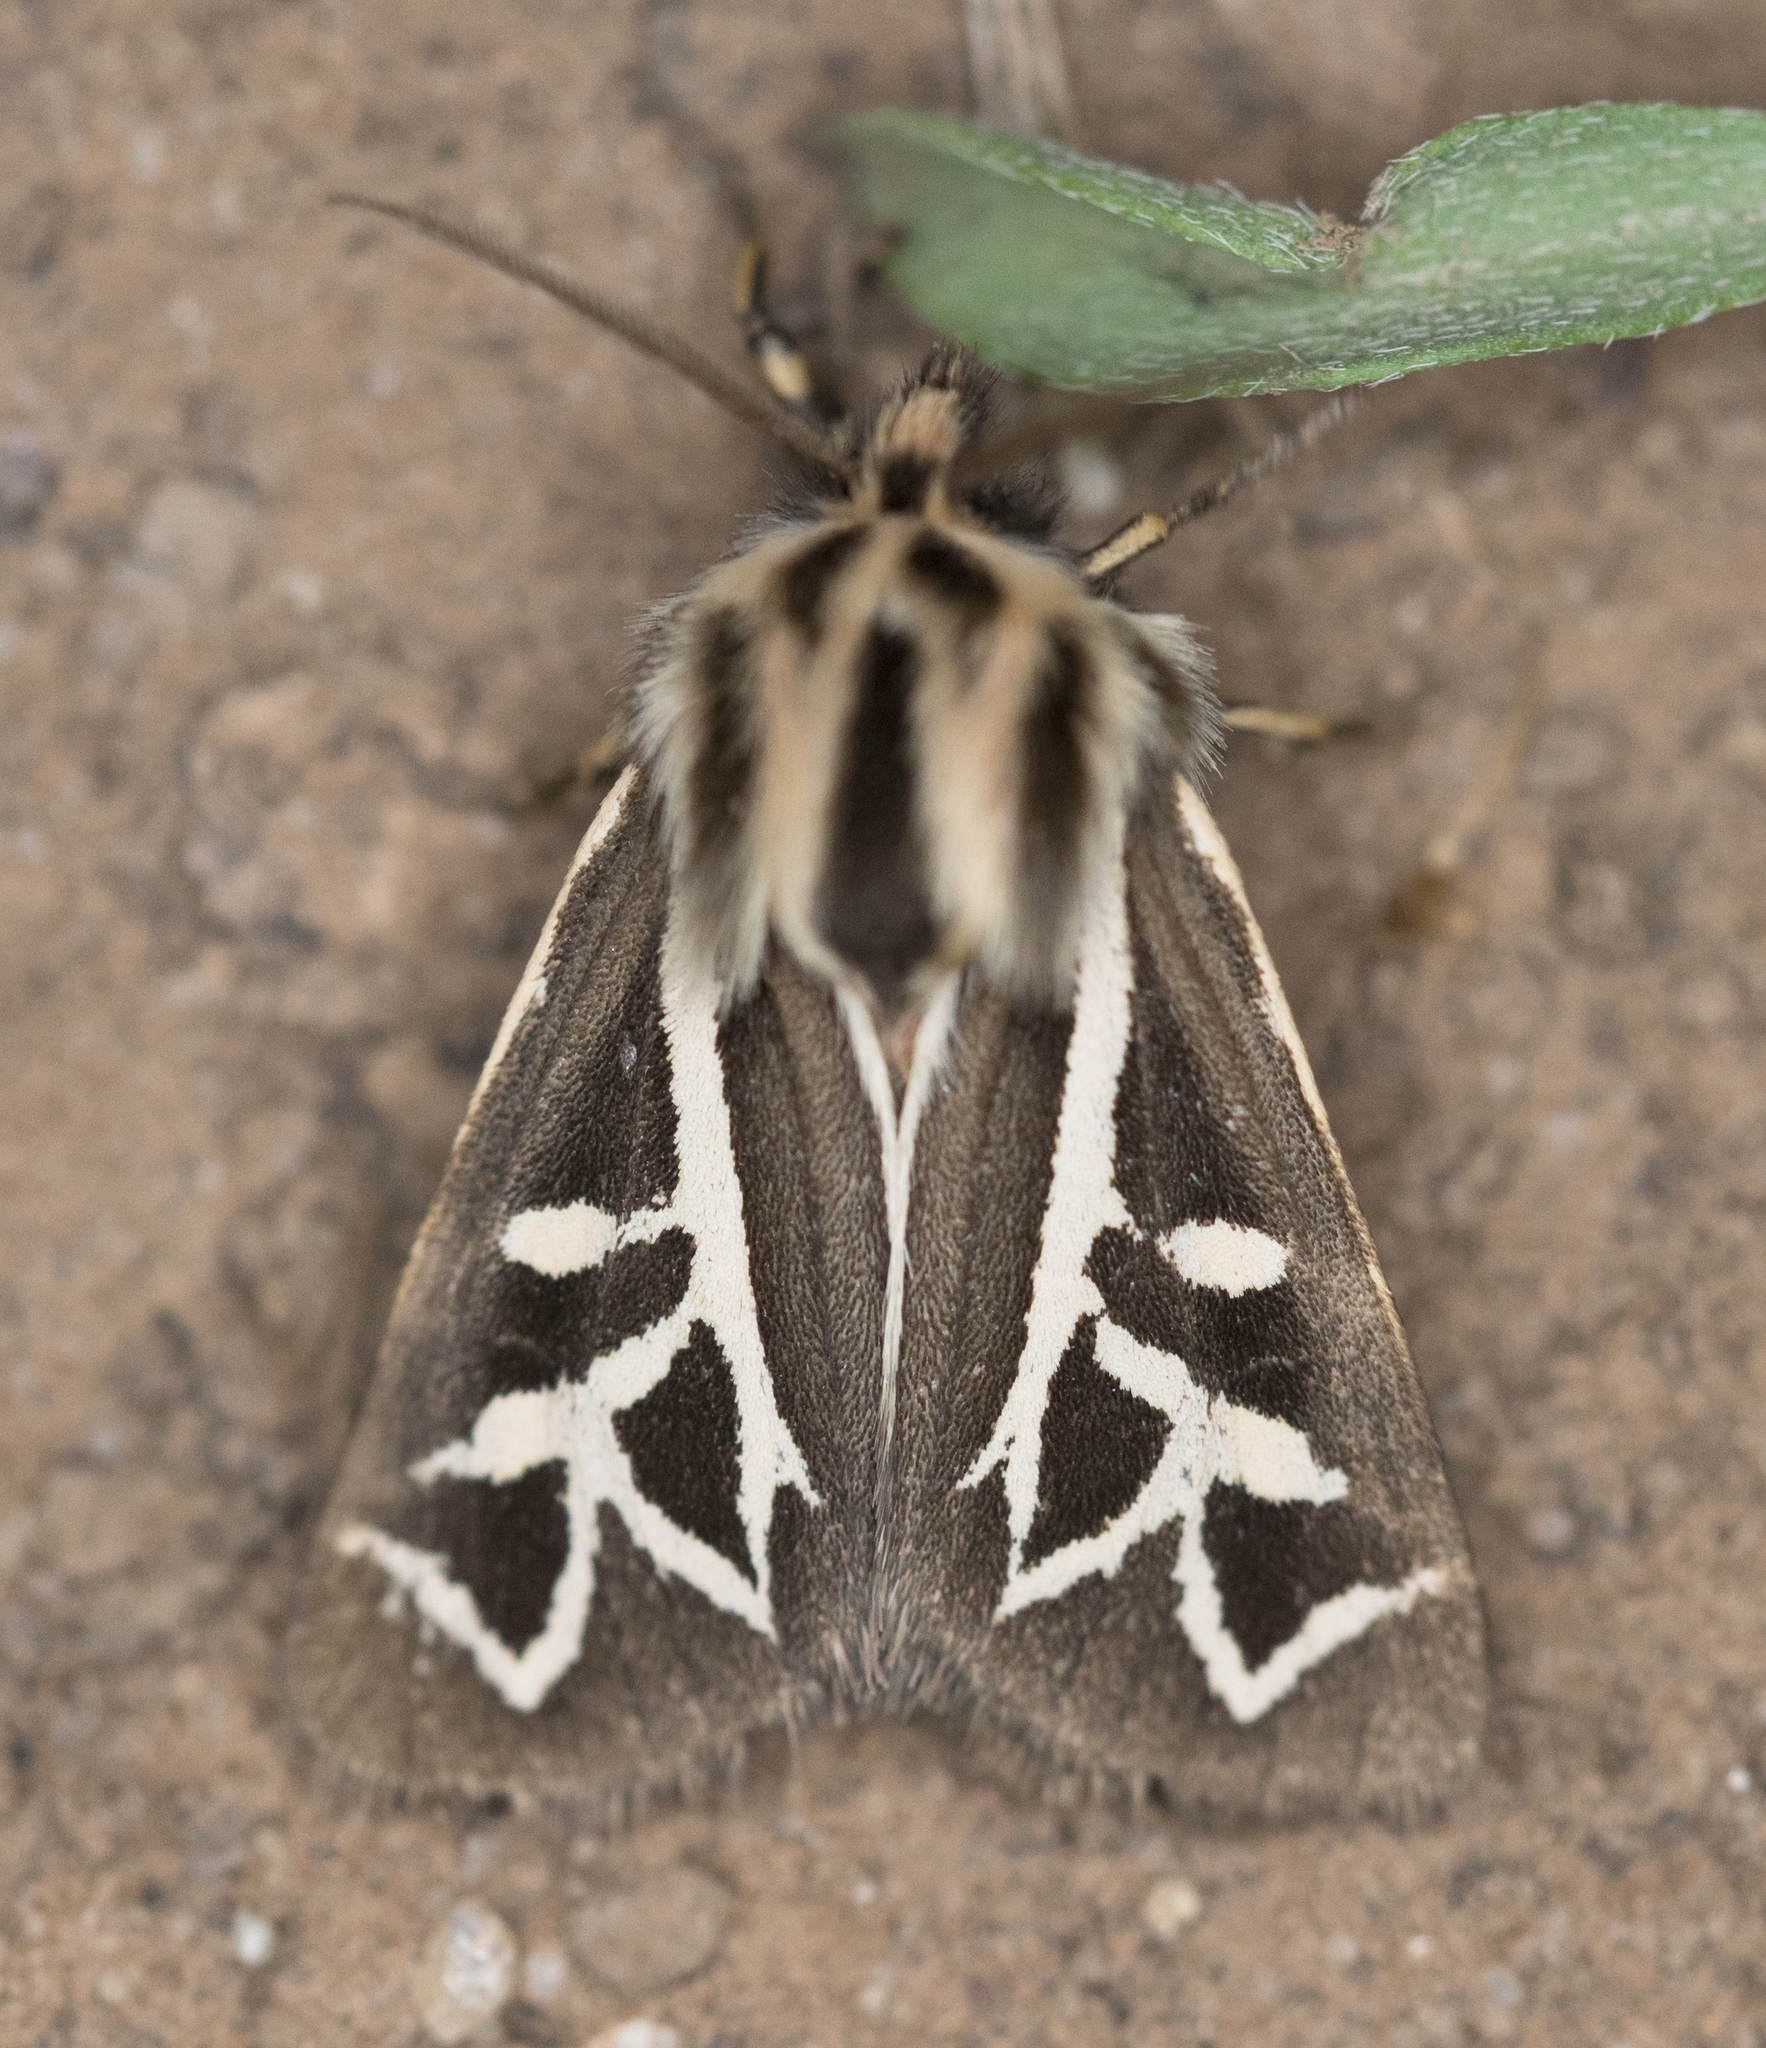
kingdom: Animalia
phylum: Arthropoda
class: Insecta
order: Lepidoptera
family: Erebidae
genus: Apantesis
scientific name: Apantesis
